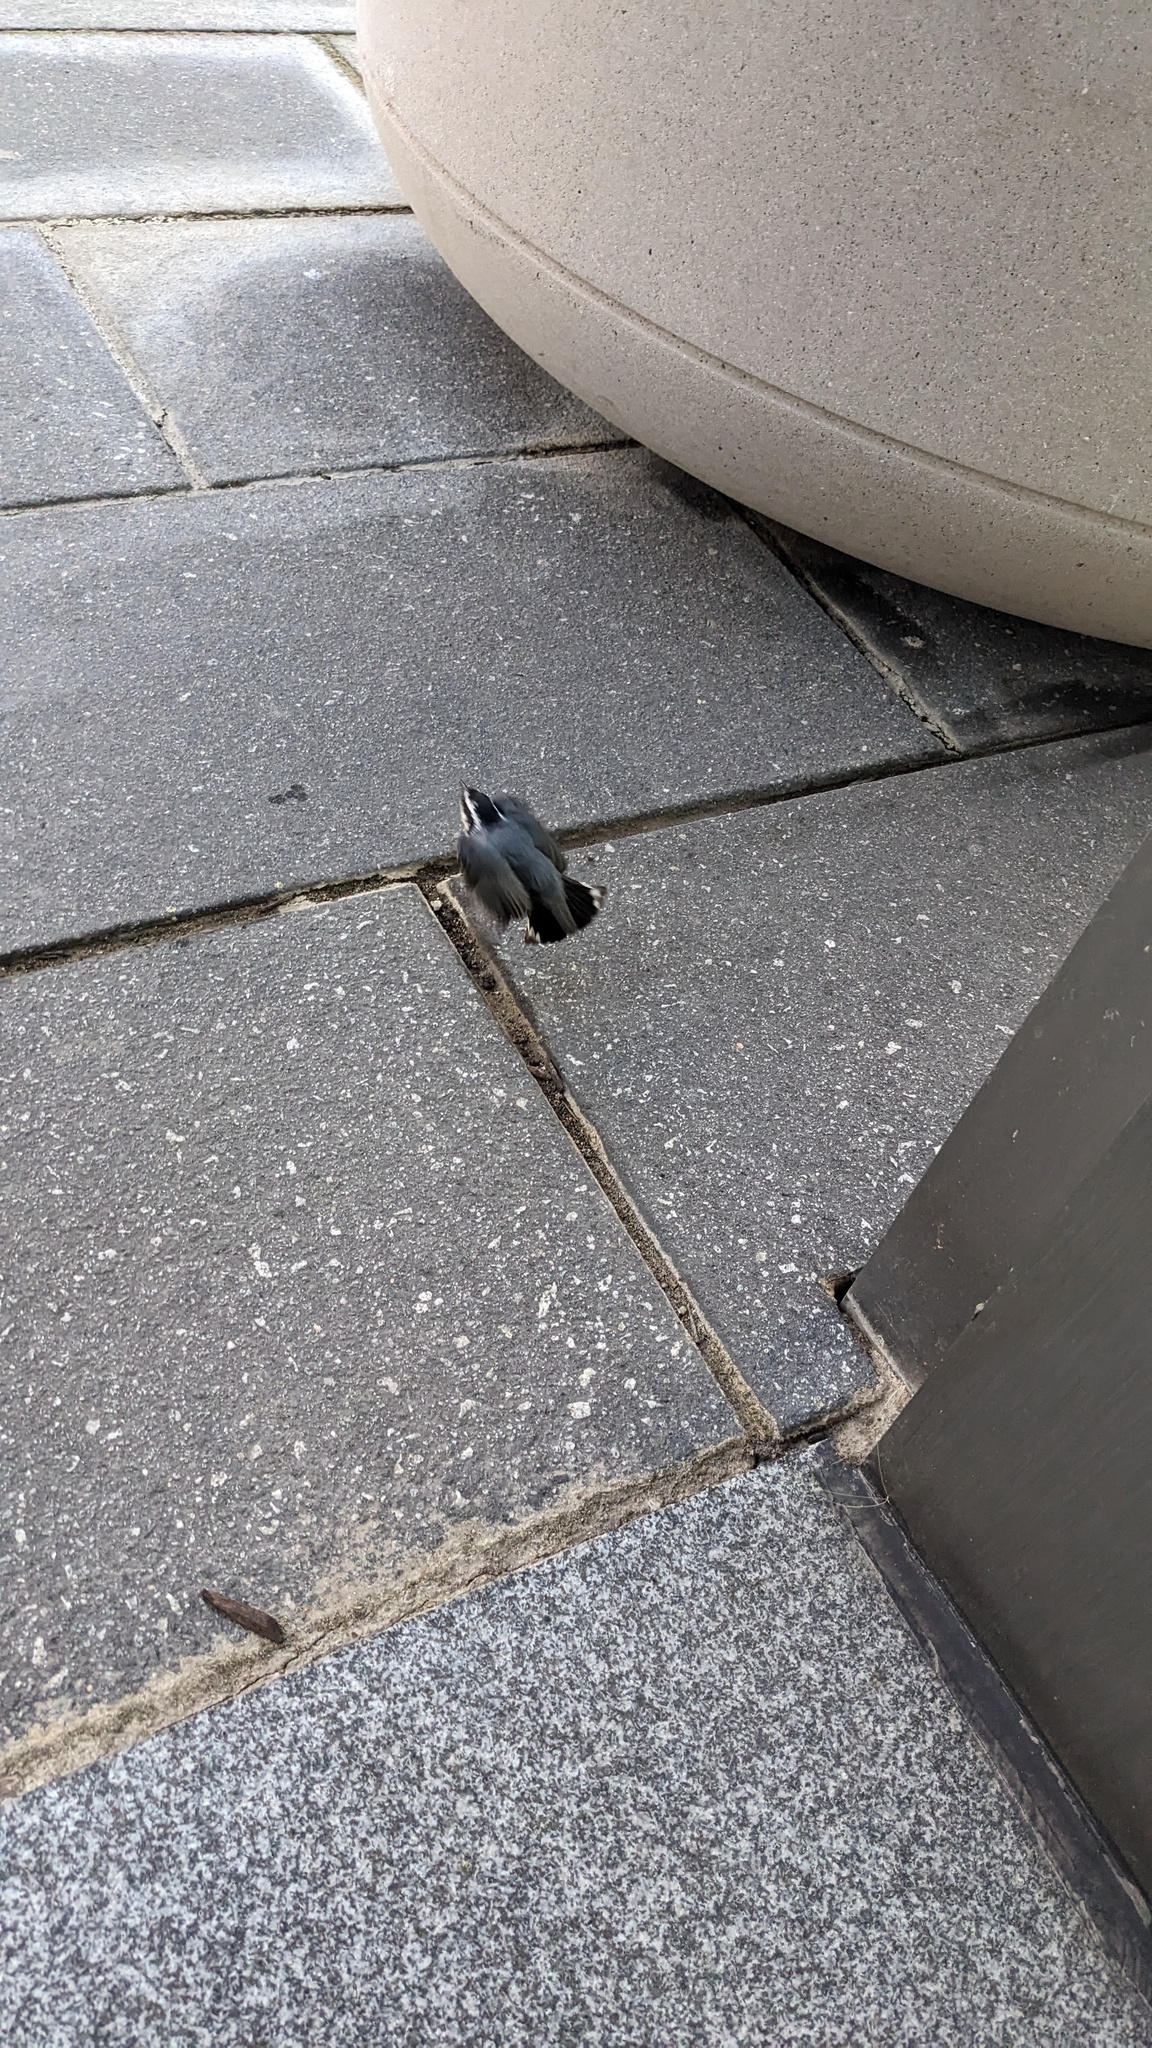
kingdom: Animalia
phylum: Chordata
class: Aves
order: Passeriformes
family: Sittidae
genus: Sitta
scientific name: Sitta canadensis
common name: Red-breasted nuthatch
